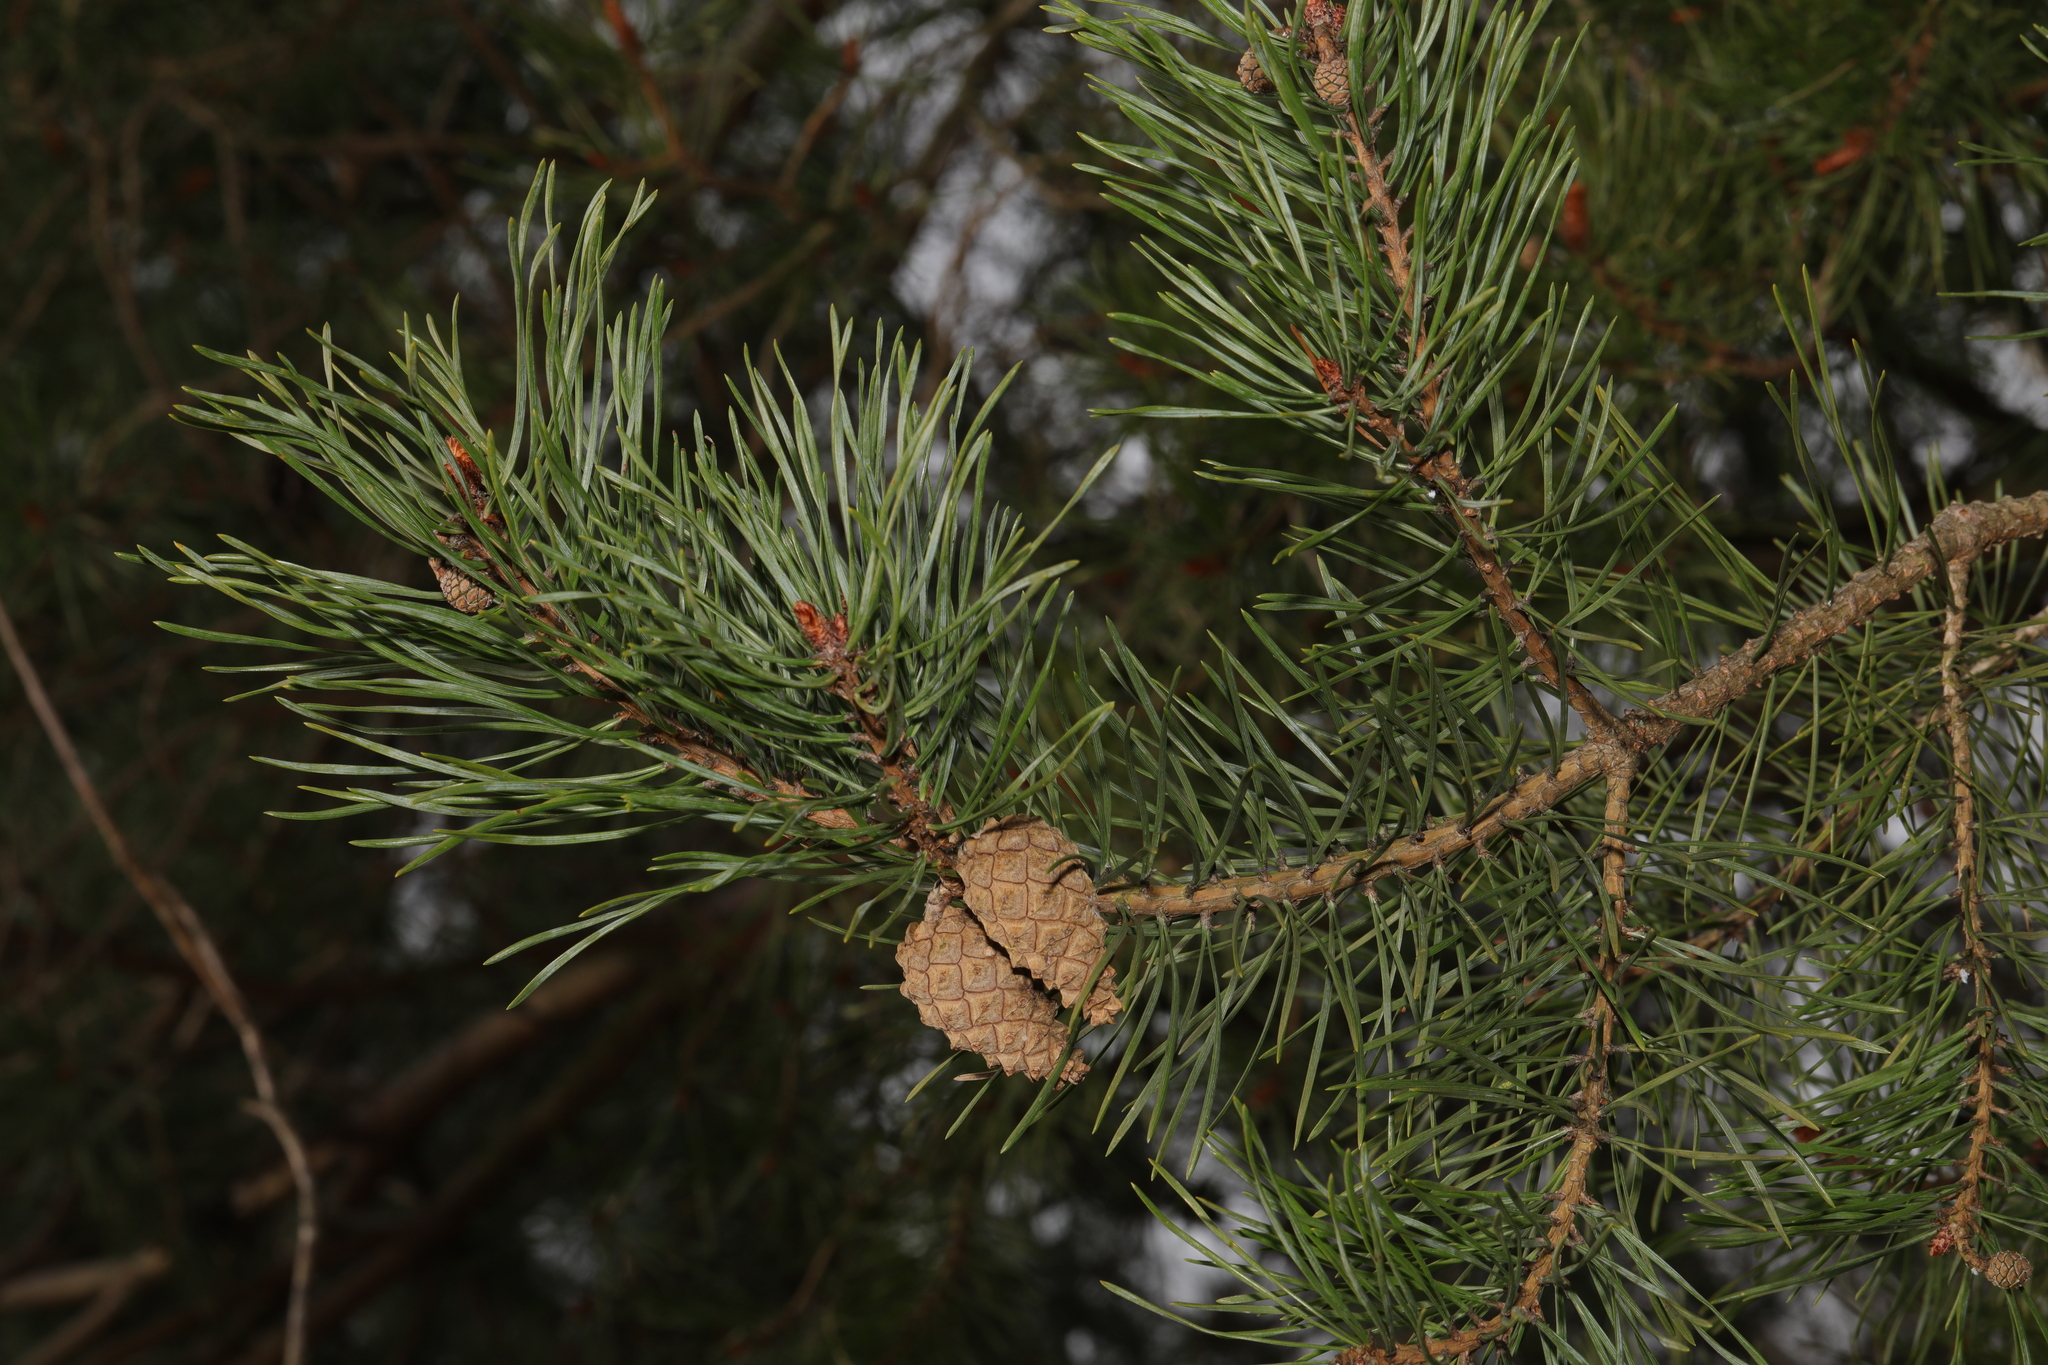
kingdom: Plantae
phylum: Tracheophyta
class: Pinopsida
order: Pinales
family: Pinaceae
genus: Pinus
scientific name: Pinus sylvestris
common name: Scots pine
